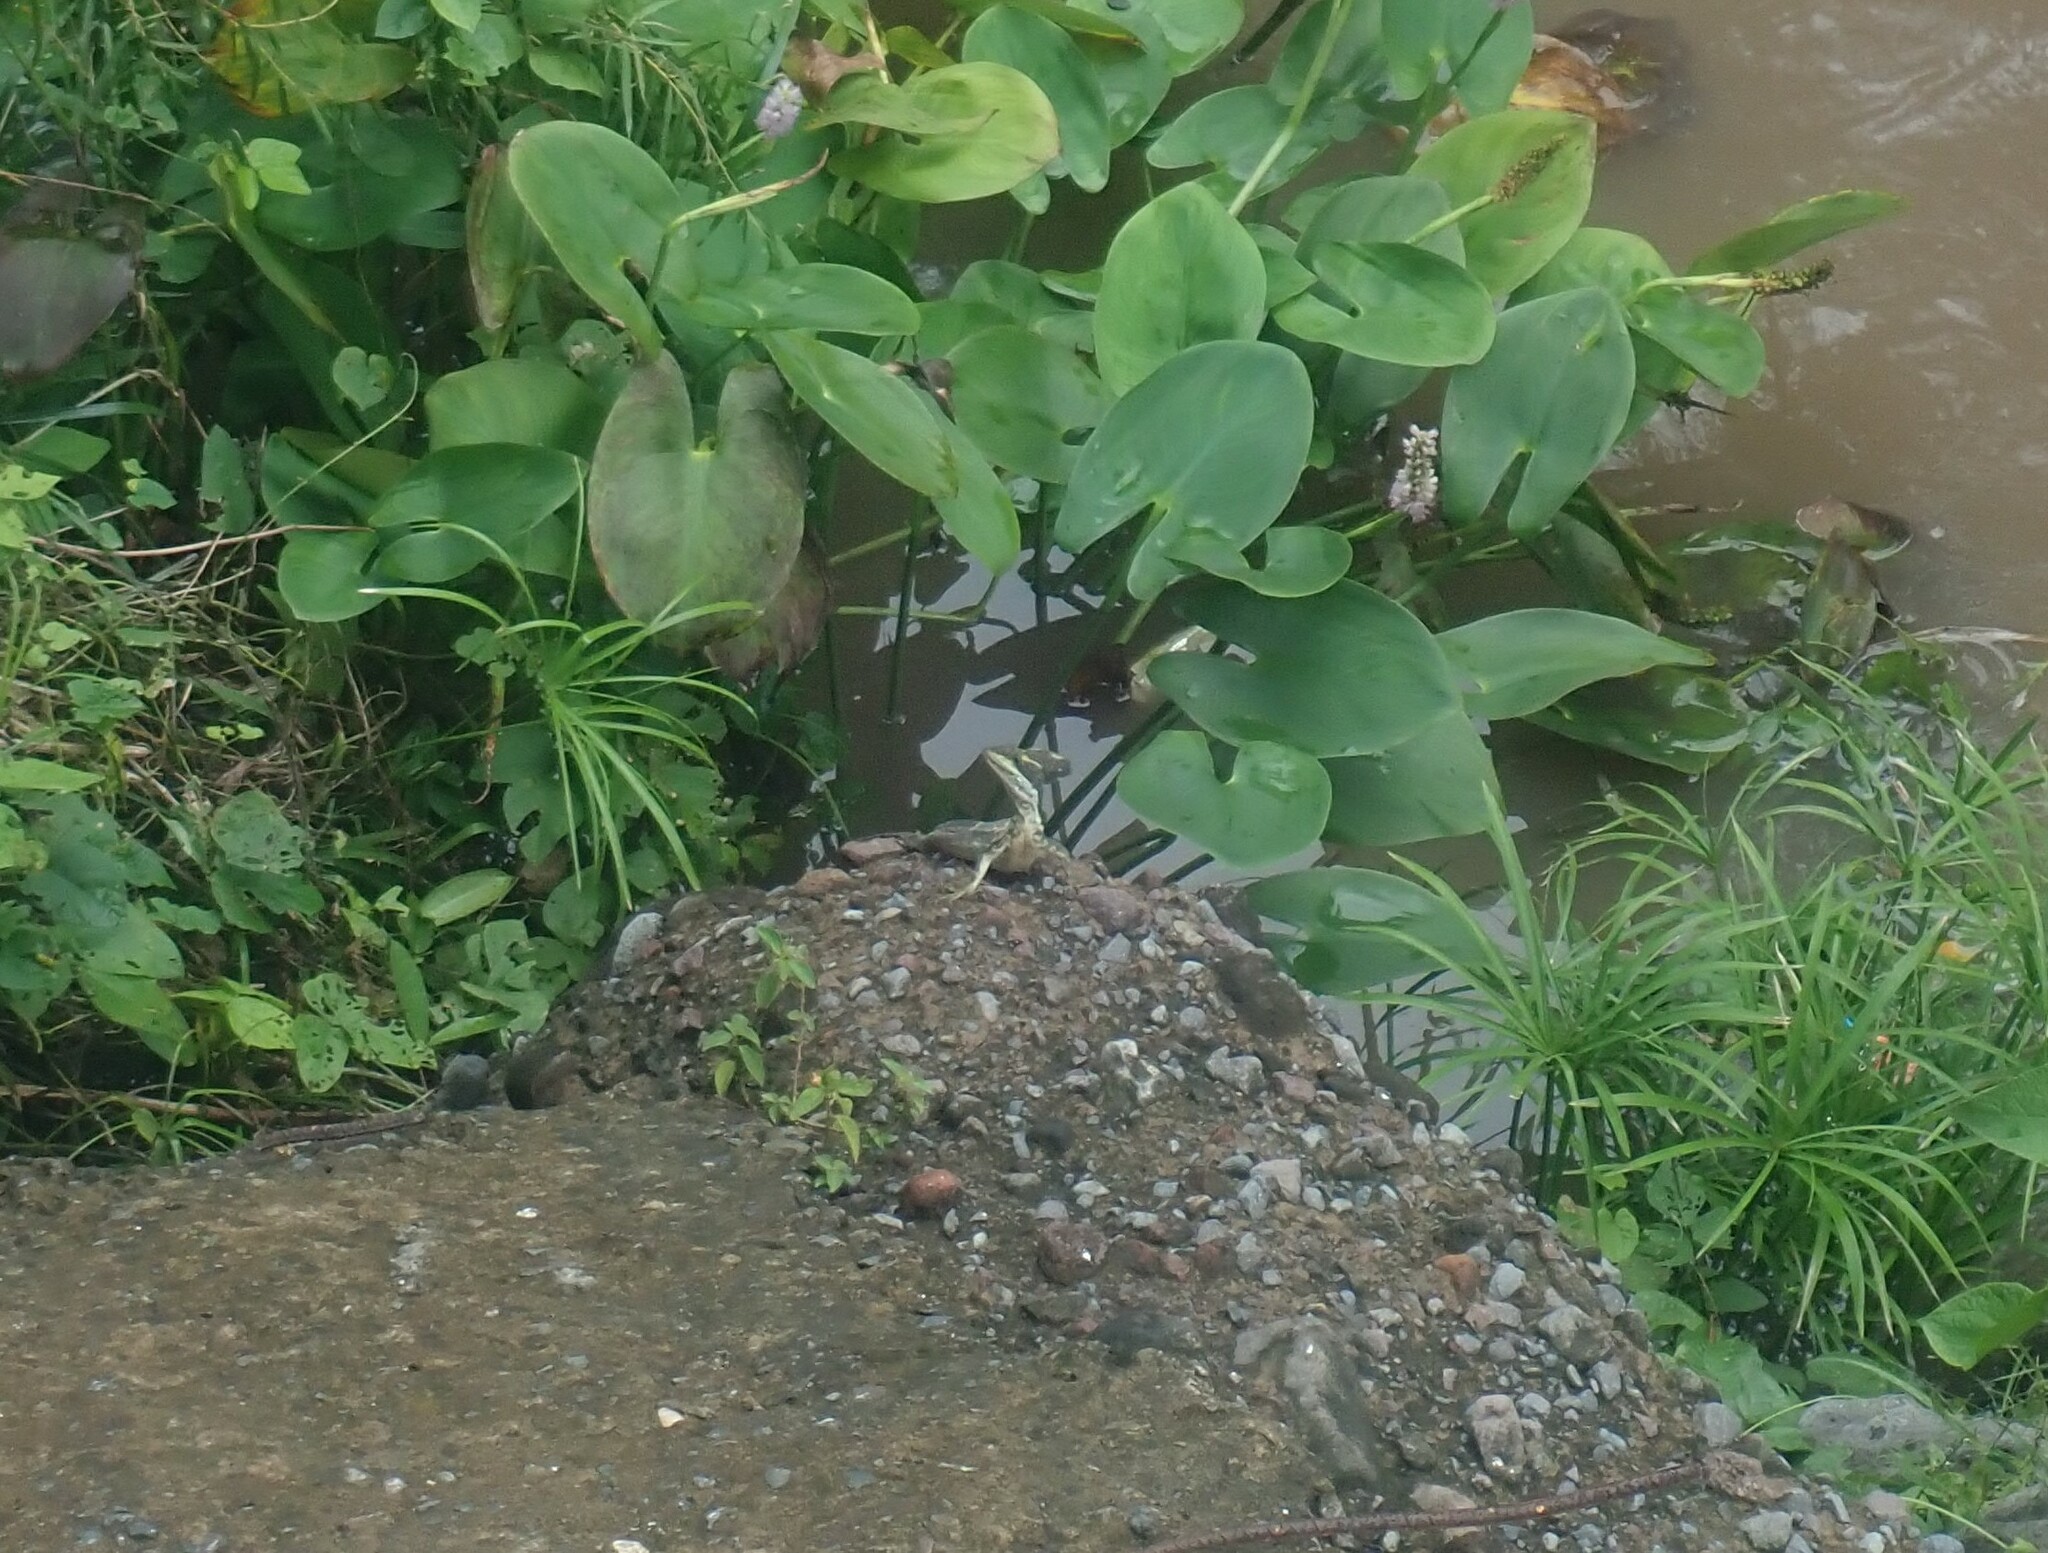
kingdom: Animalia
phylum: Chordata
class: Squamata
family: Corytophanidae
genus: Basiliscus
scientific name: Basiliscus vittatus
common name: Brown basilisk
